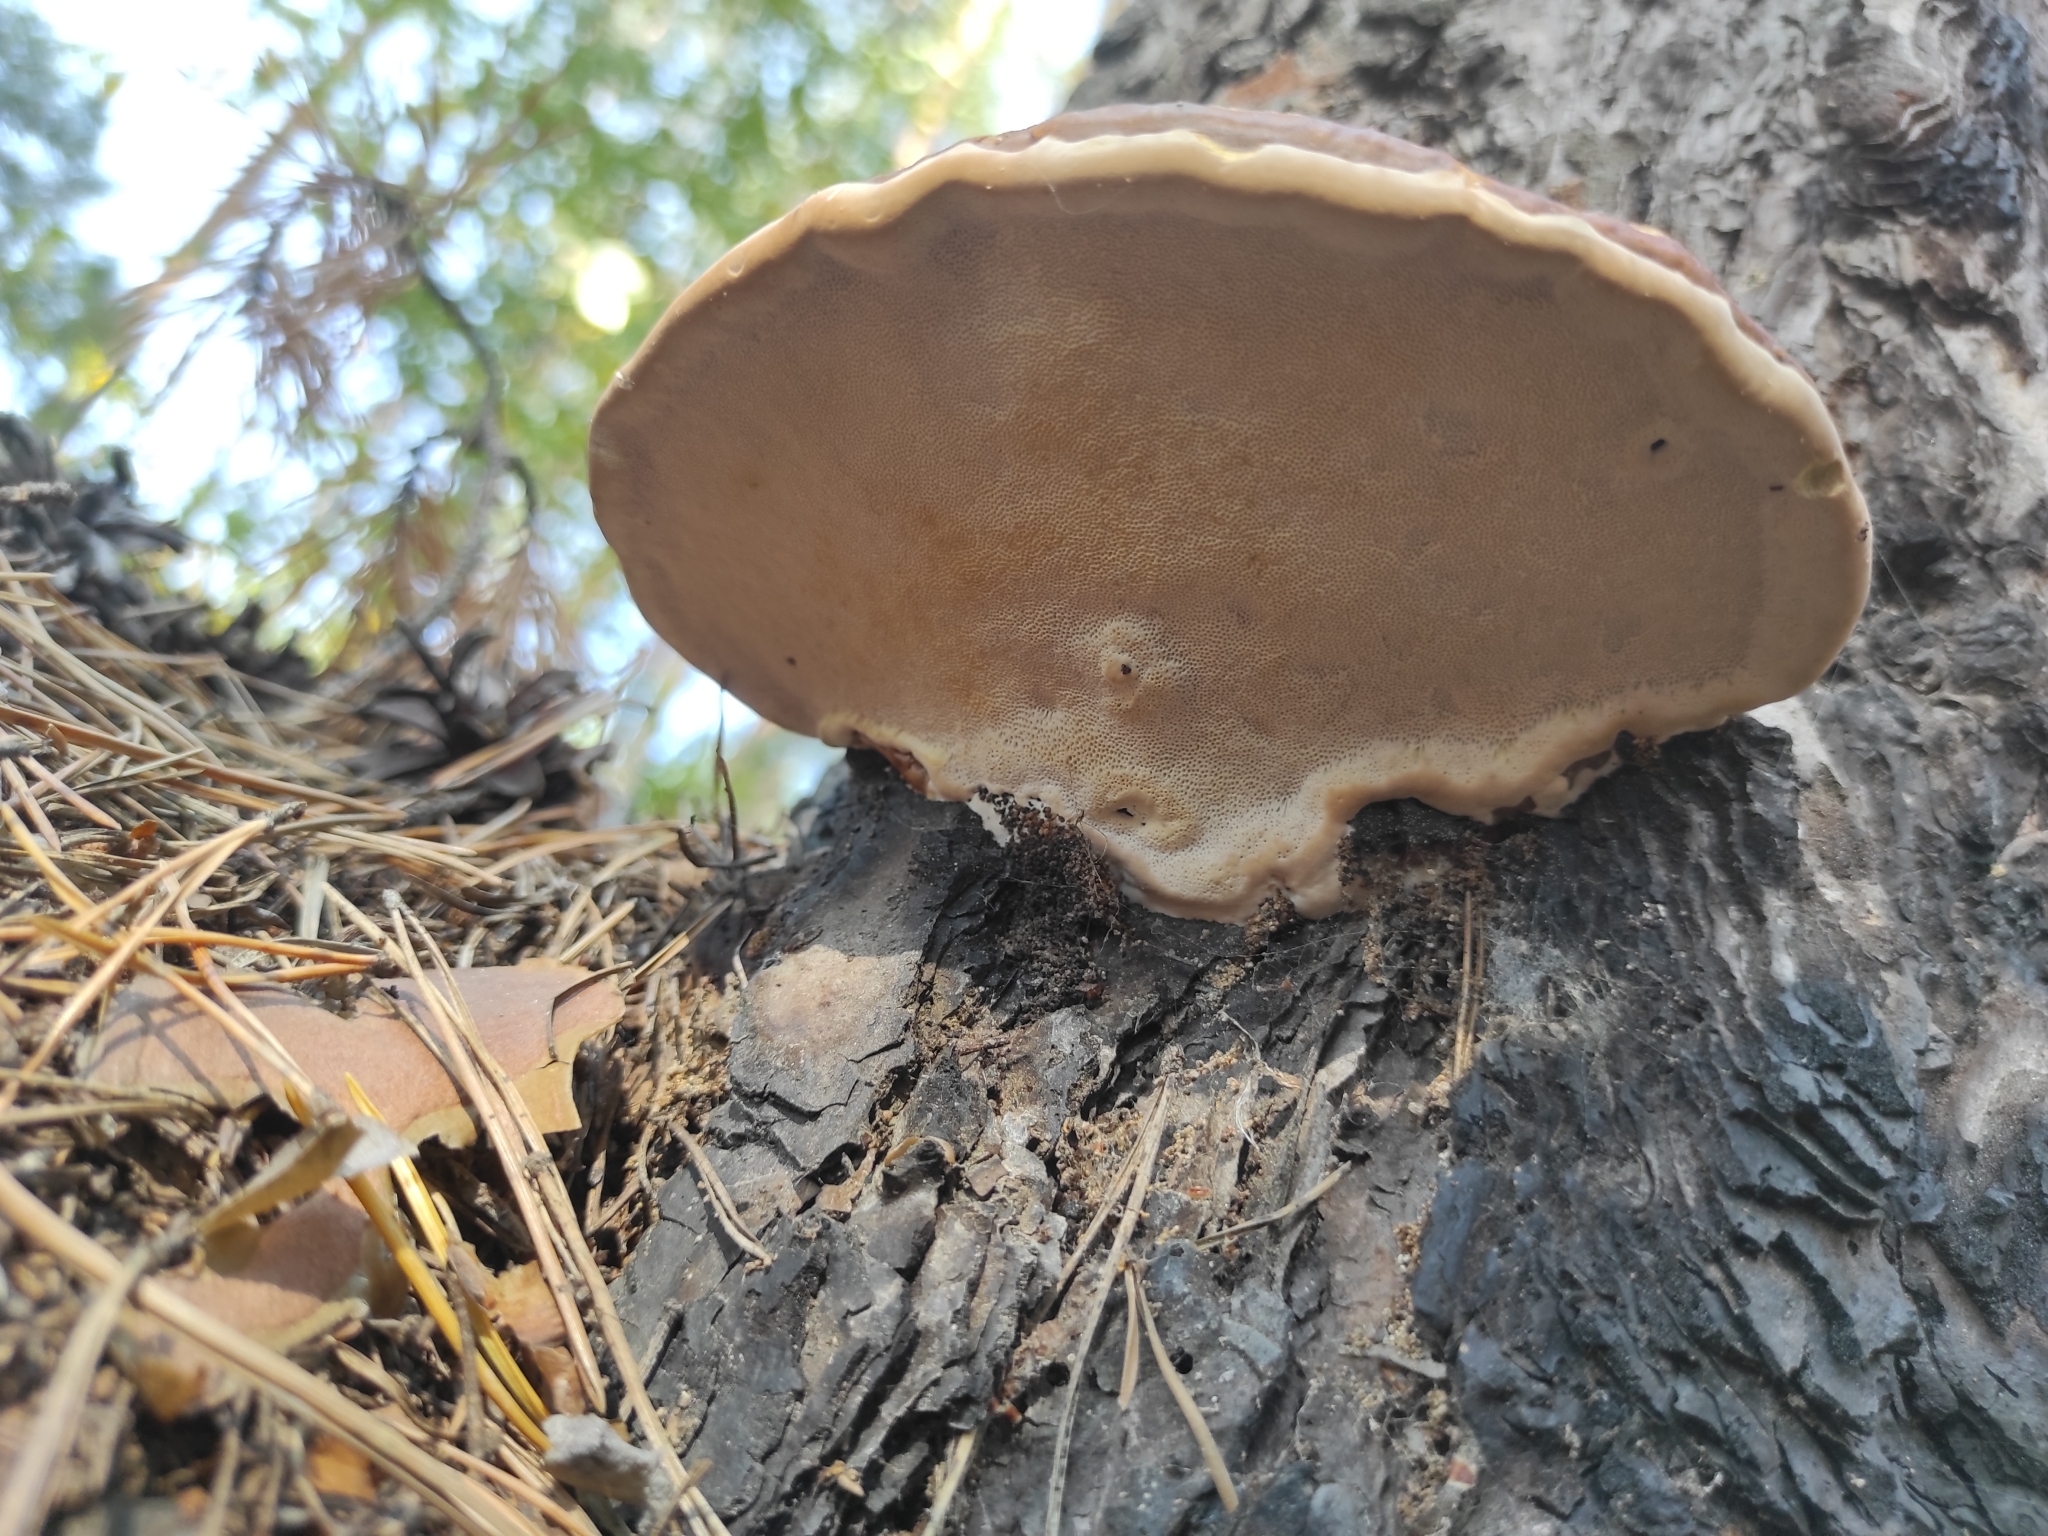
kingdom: Fungi
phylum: Basidiomycota
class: Agaricomycetes
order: Polyporales
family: Fomitopsidaceae
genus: Fomitopsis
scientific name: Fomitopsis pinicola
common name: Red-belted bracket
